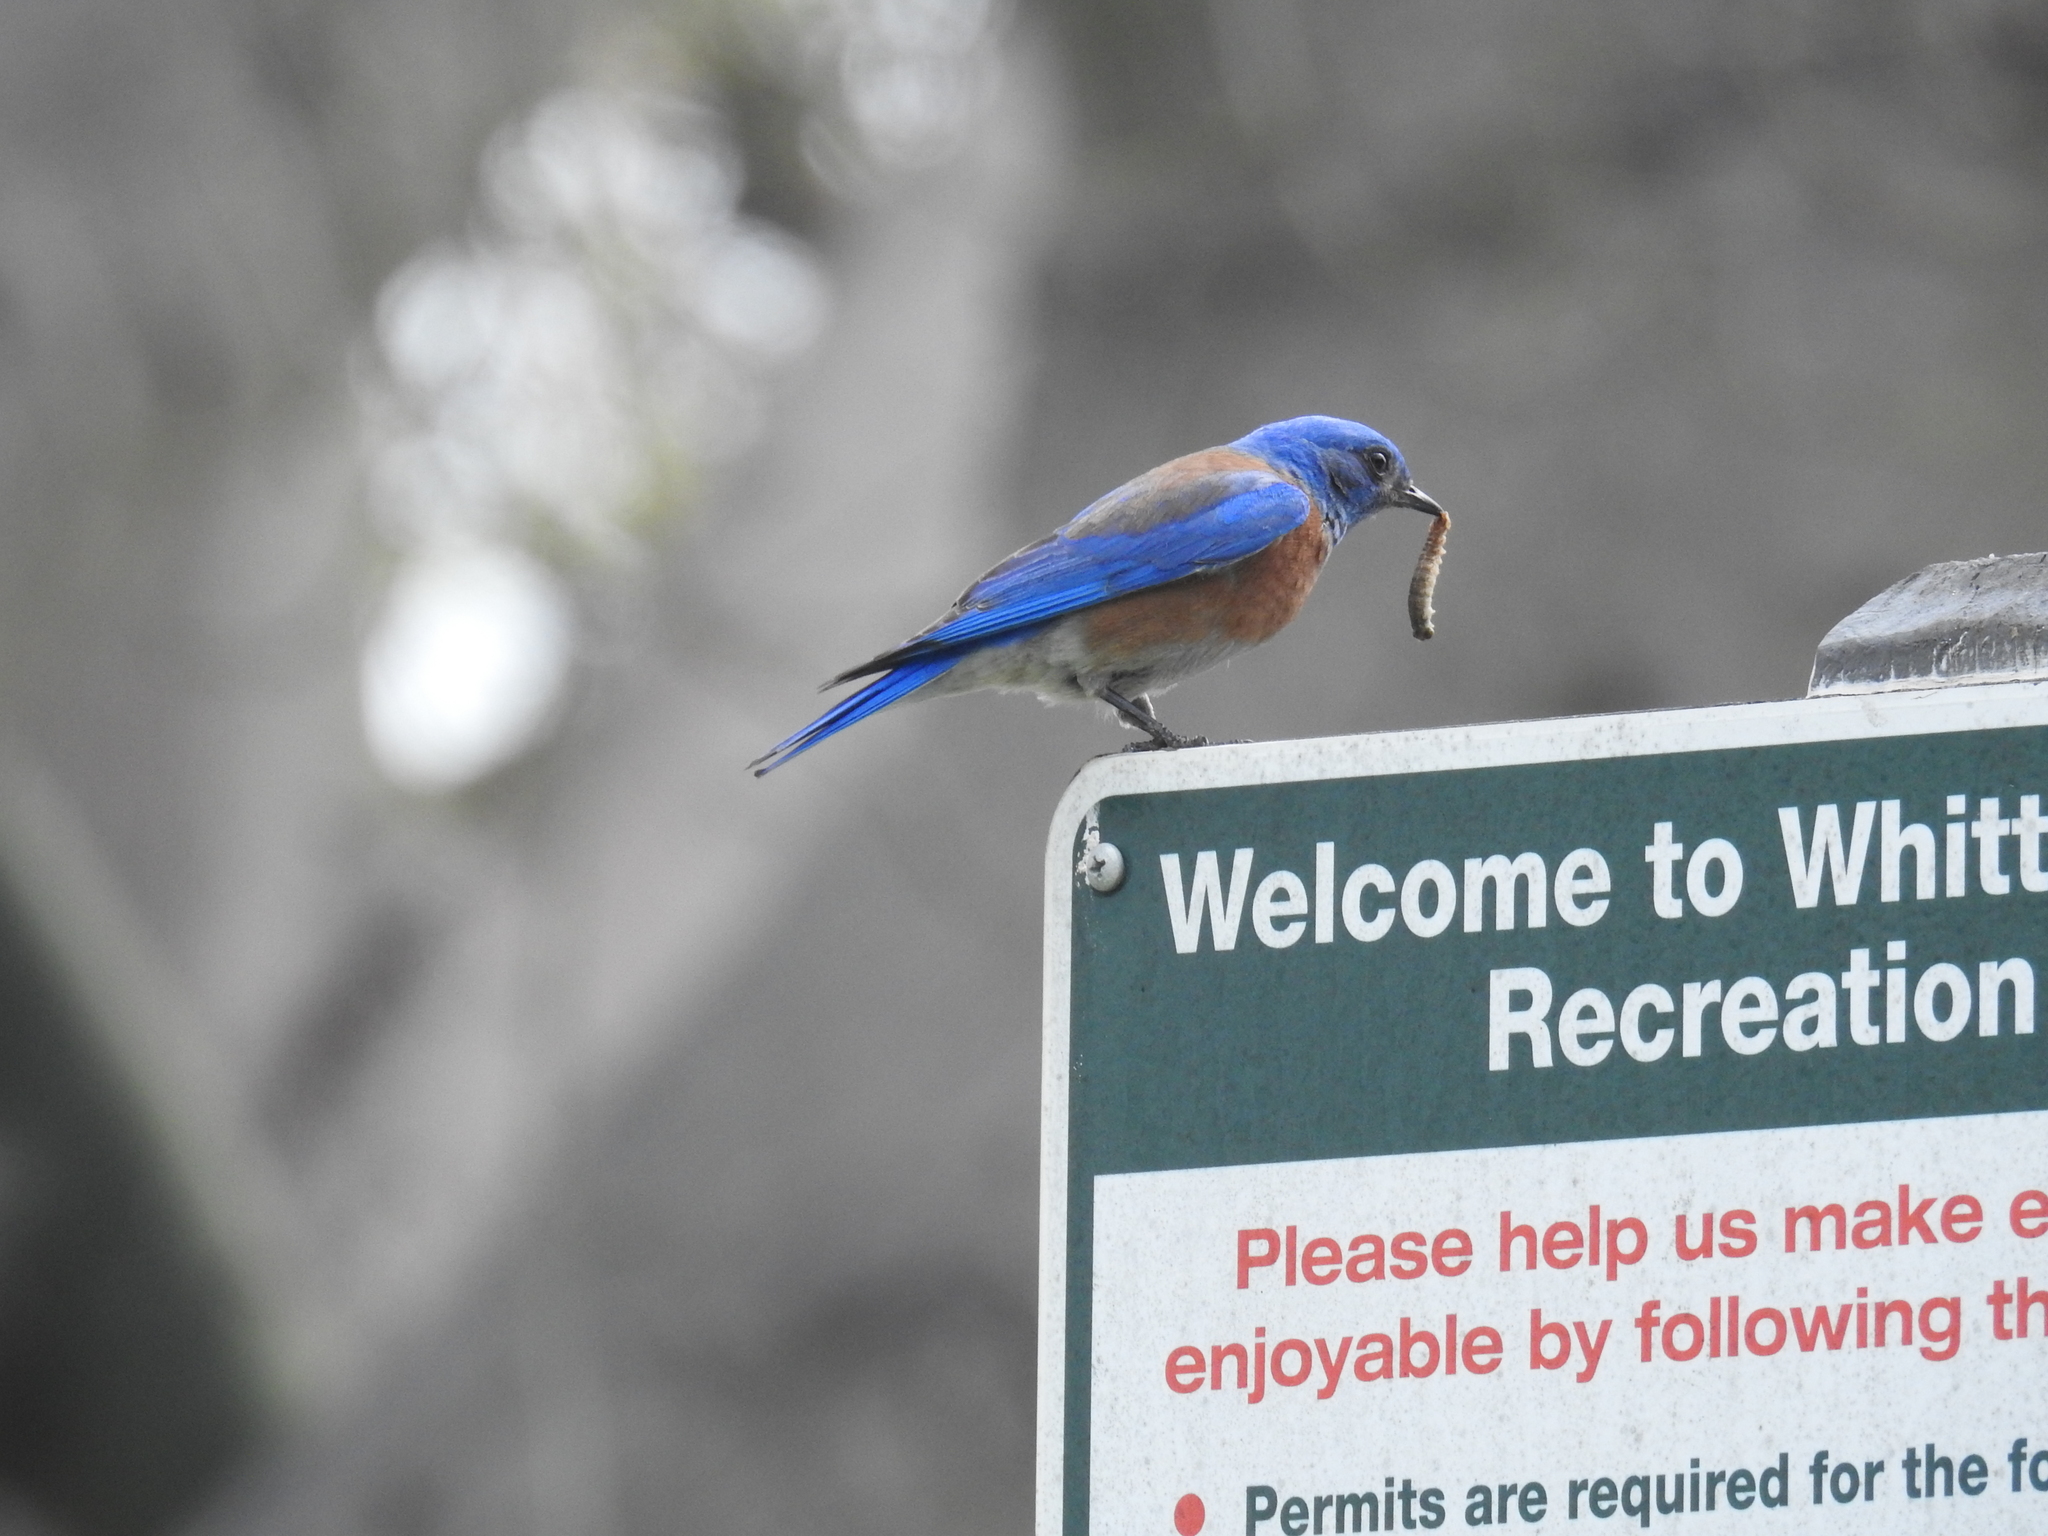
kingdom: Animalia
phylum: Chordata
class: Aves
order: Passeriformes
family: Turdidae
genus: Sialia
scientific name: Sialia mexicana
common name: Western bluebird
